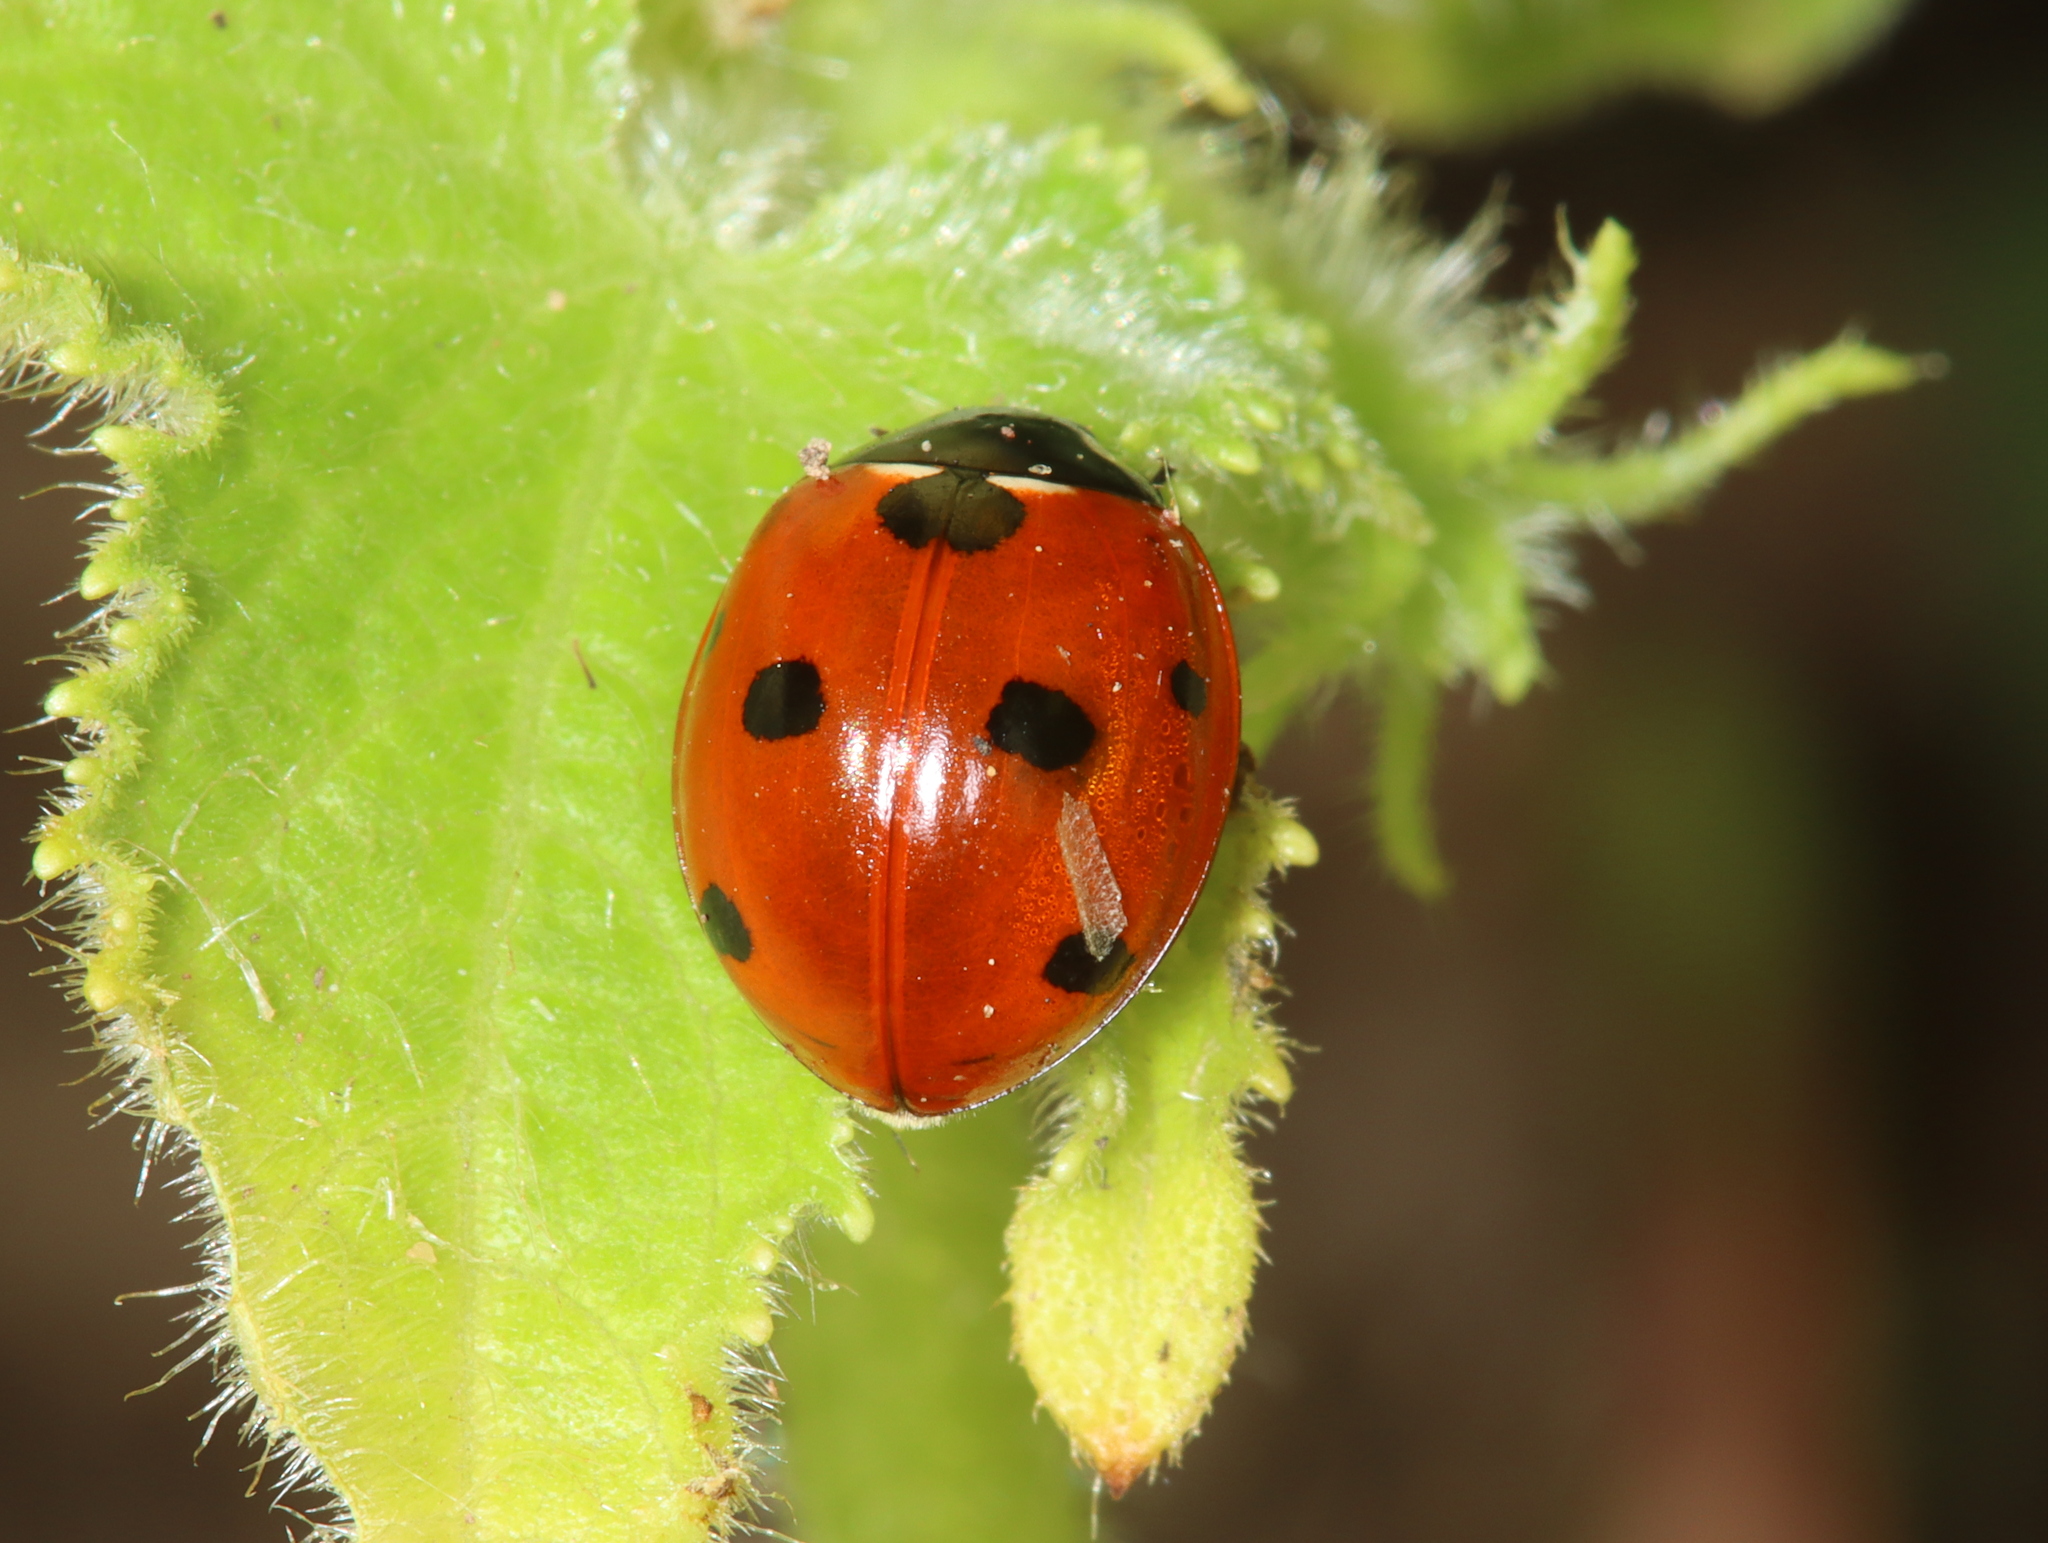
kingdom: Animalia
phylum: Arthropoda
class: Insecta
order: Coleoptera
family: Coccinellidae
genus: Coccinella
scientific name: Coccinella septempunctata
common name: Sevenspotted lady beetle
